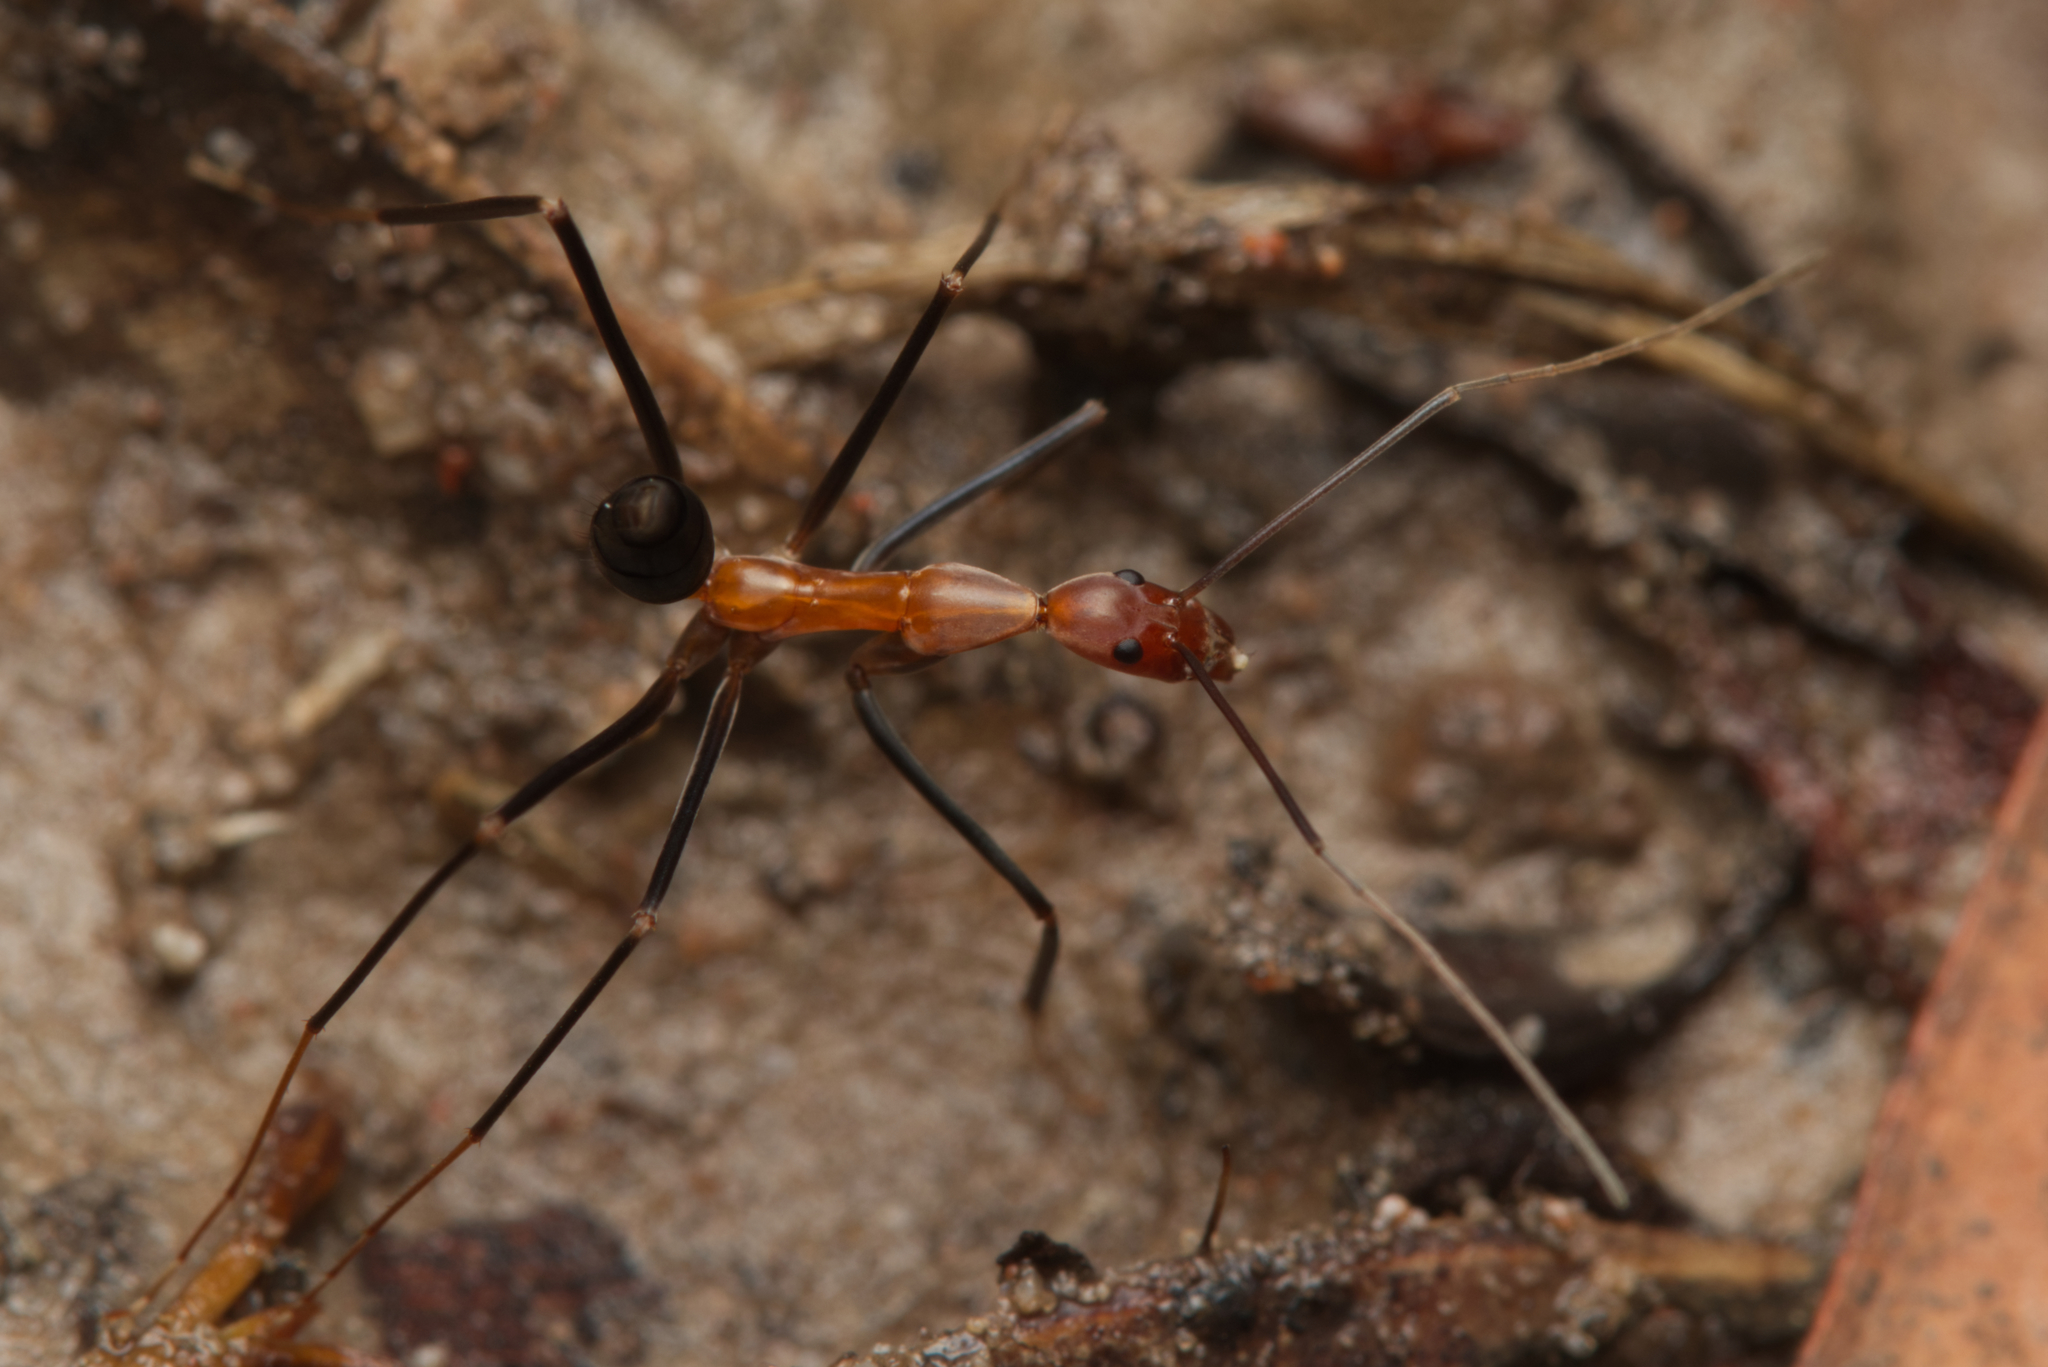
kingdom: Animalia
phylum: Arthropoda
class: Insecta
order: Hymenoptera
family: Formicidae
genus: Leptomyrmex
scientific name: Leptomyrmex varians
